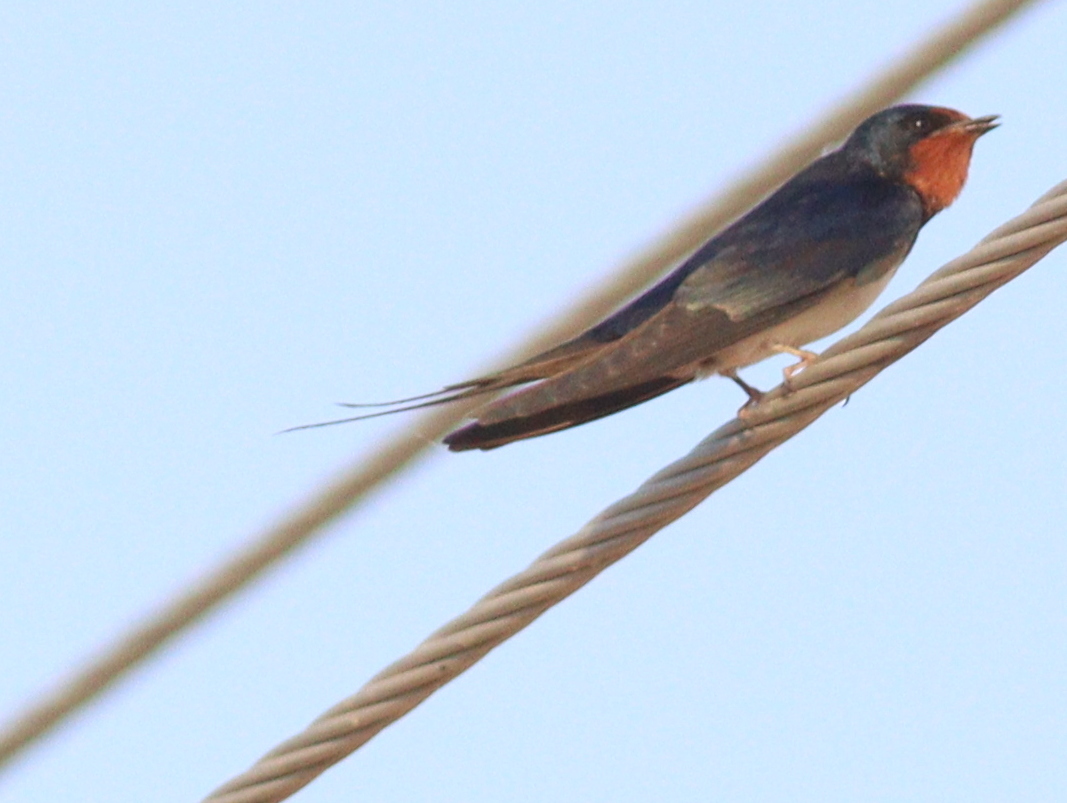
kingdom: Animalia
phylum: Chordata
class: Aves
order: Passeriformes
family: Hirundinidae
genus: Hirundo
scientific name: Hirundo rustica
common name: Barn swallow
